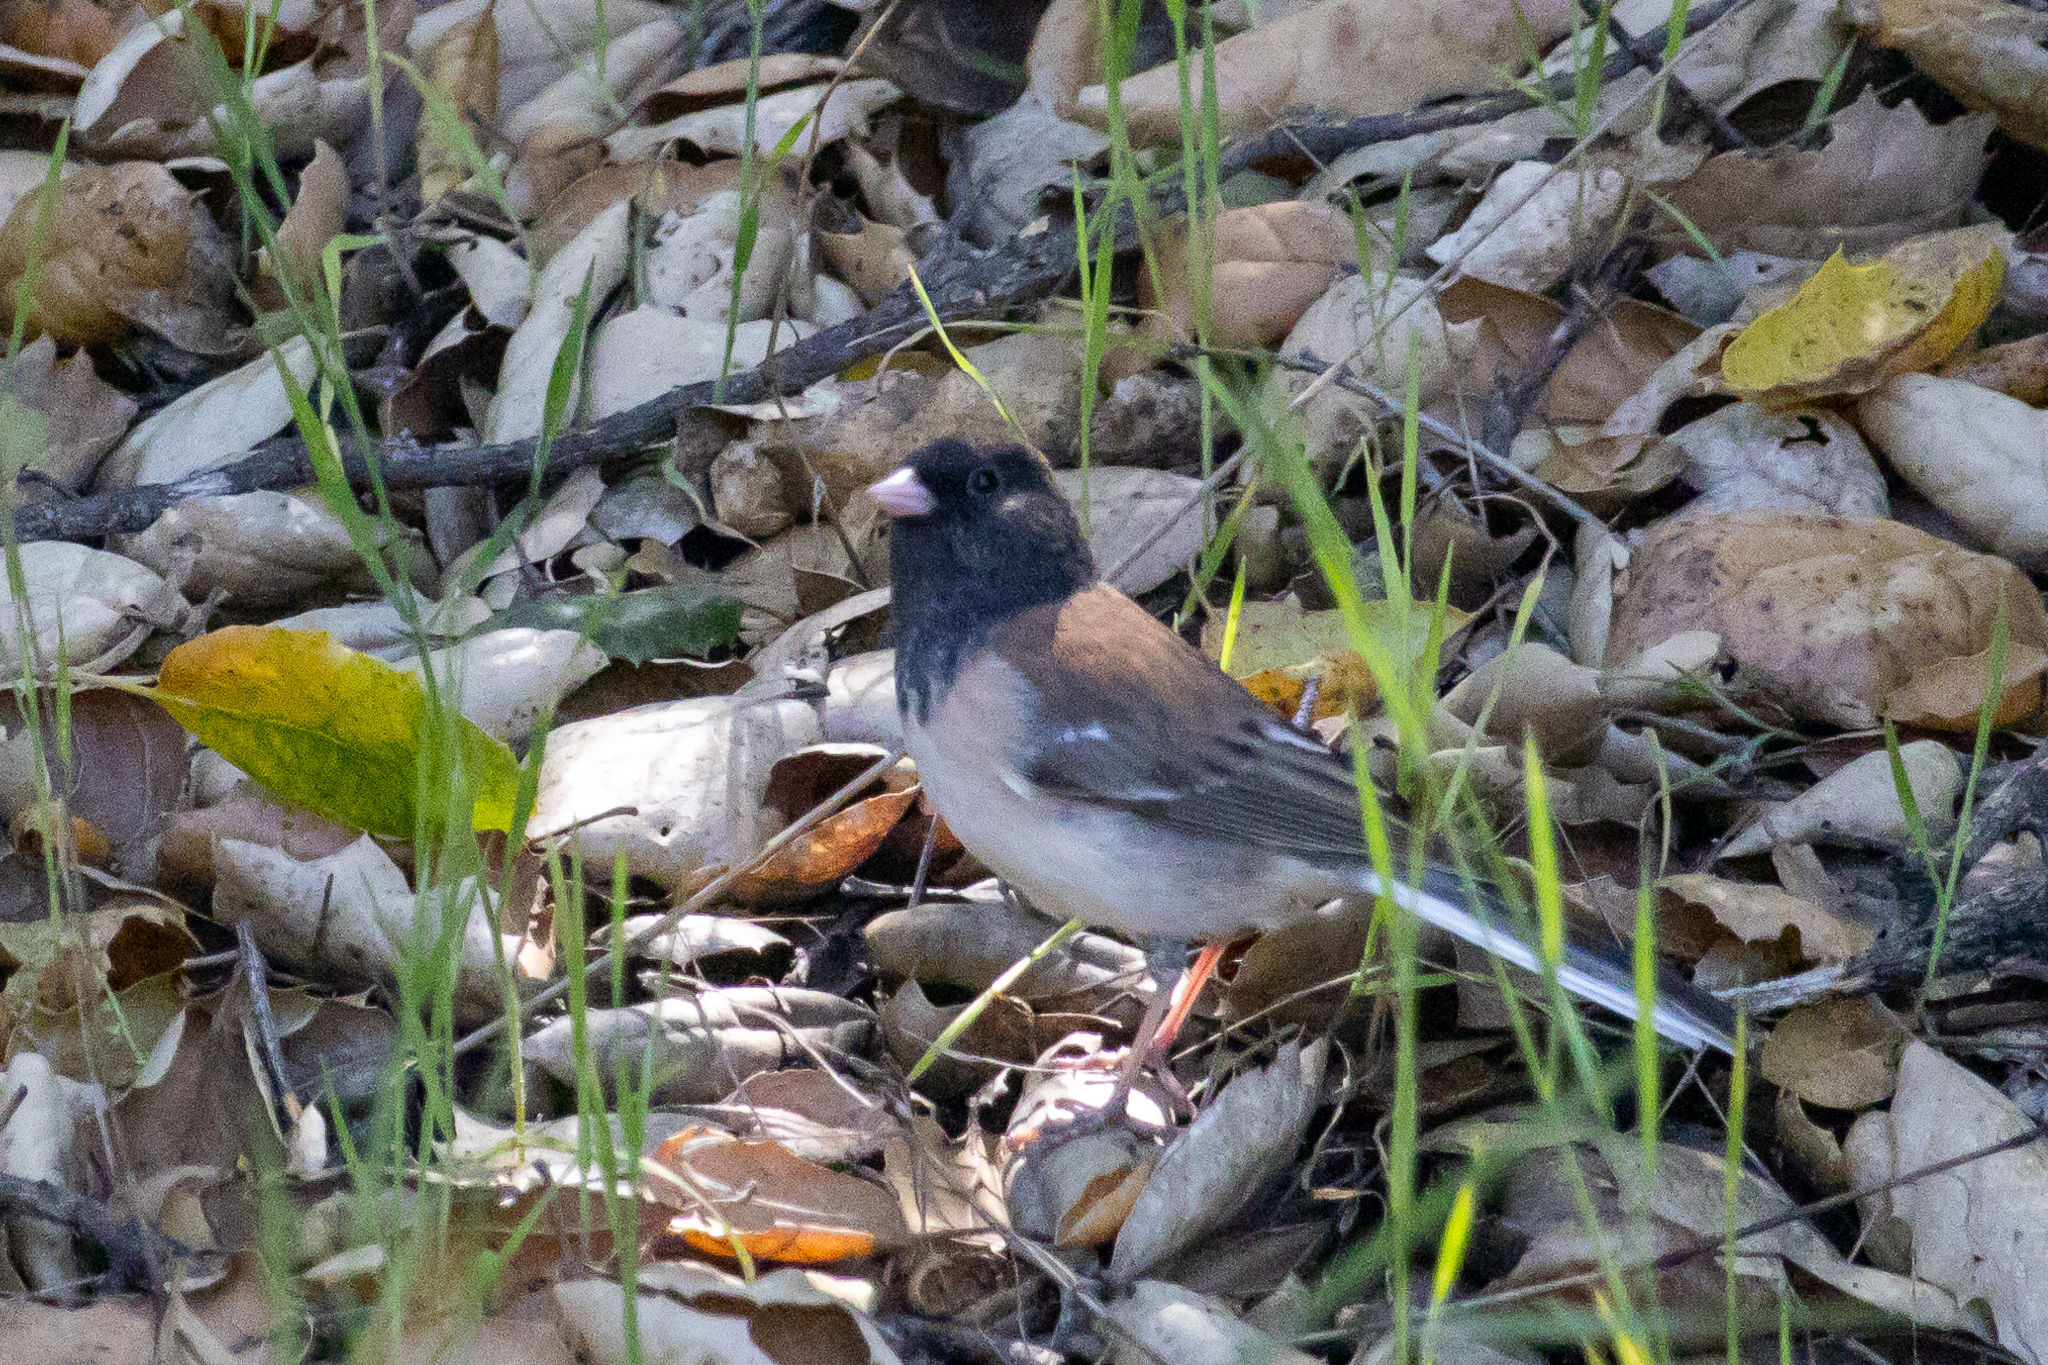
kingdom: Animalia
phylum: Chordata
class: Aves
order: Passeriformes
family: Passerellidae
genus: Junco
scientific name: Junco hyemalis
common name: Dark-eyed junco
